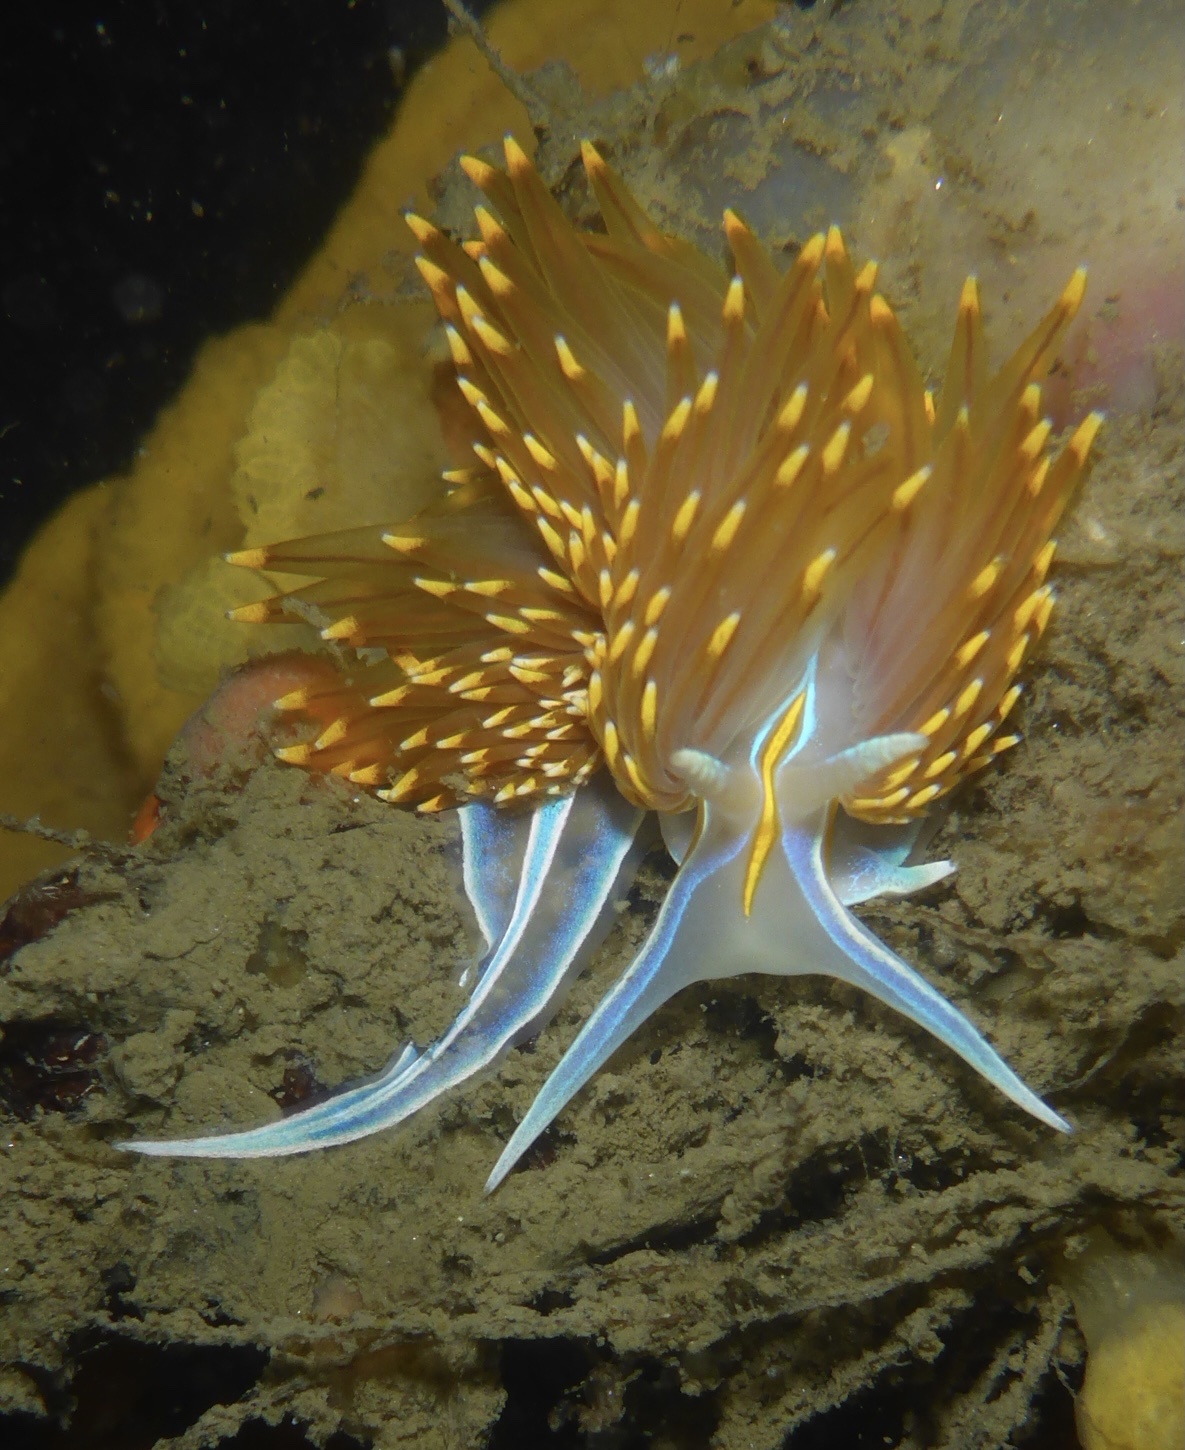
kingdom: Animalia
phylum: Mollusca
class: Gastropoda
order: Nudibranchia
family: Myrrhinidae
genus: Hermissenda
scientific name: Hermissenda opalescens
